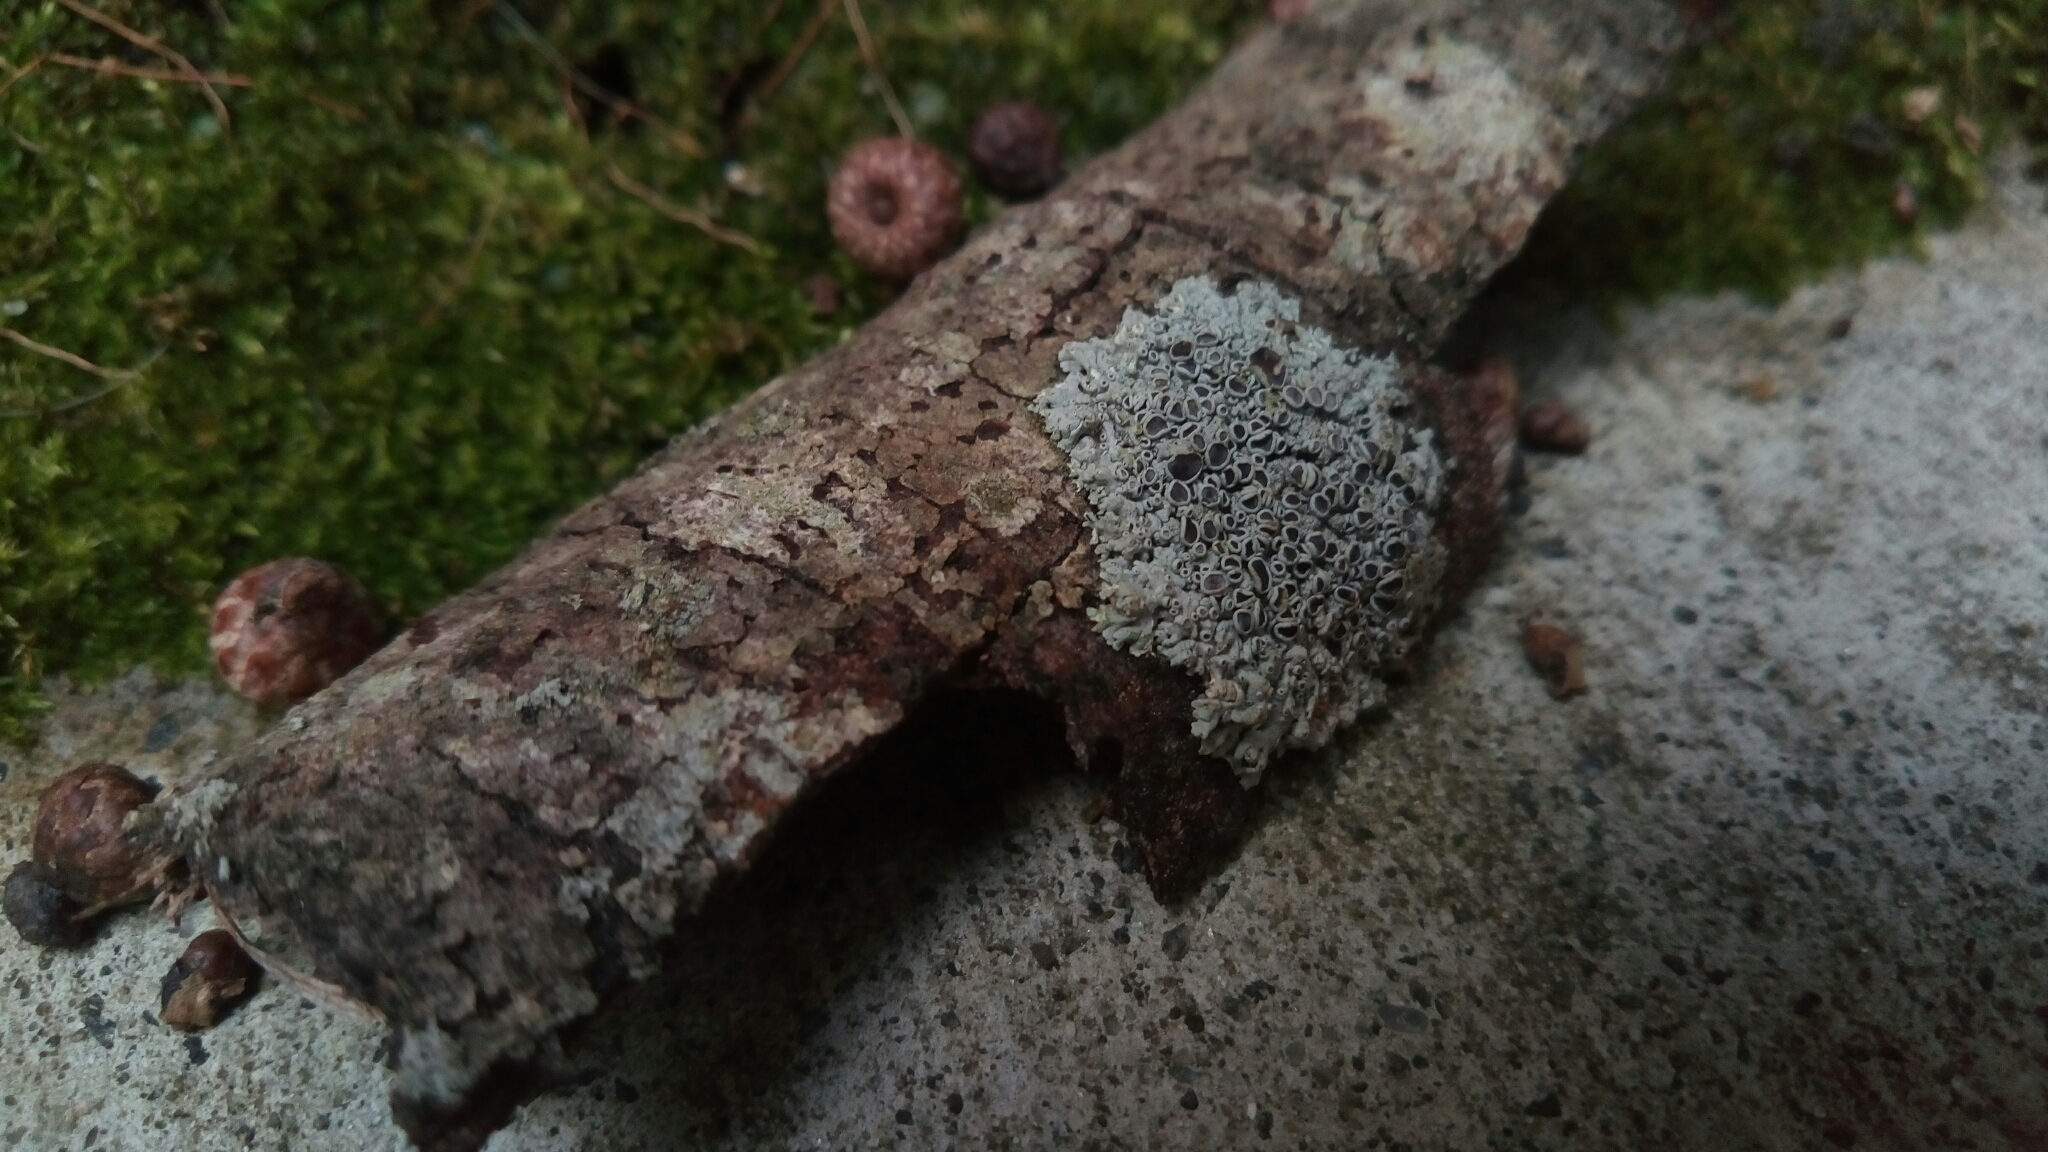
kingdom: Fungi
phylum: Ascomycota
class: Lecanoromycetes
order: Caliciales
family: Physciaceae
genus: Physcia
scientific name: Physcia stellaris
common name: Star rosette lichen
